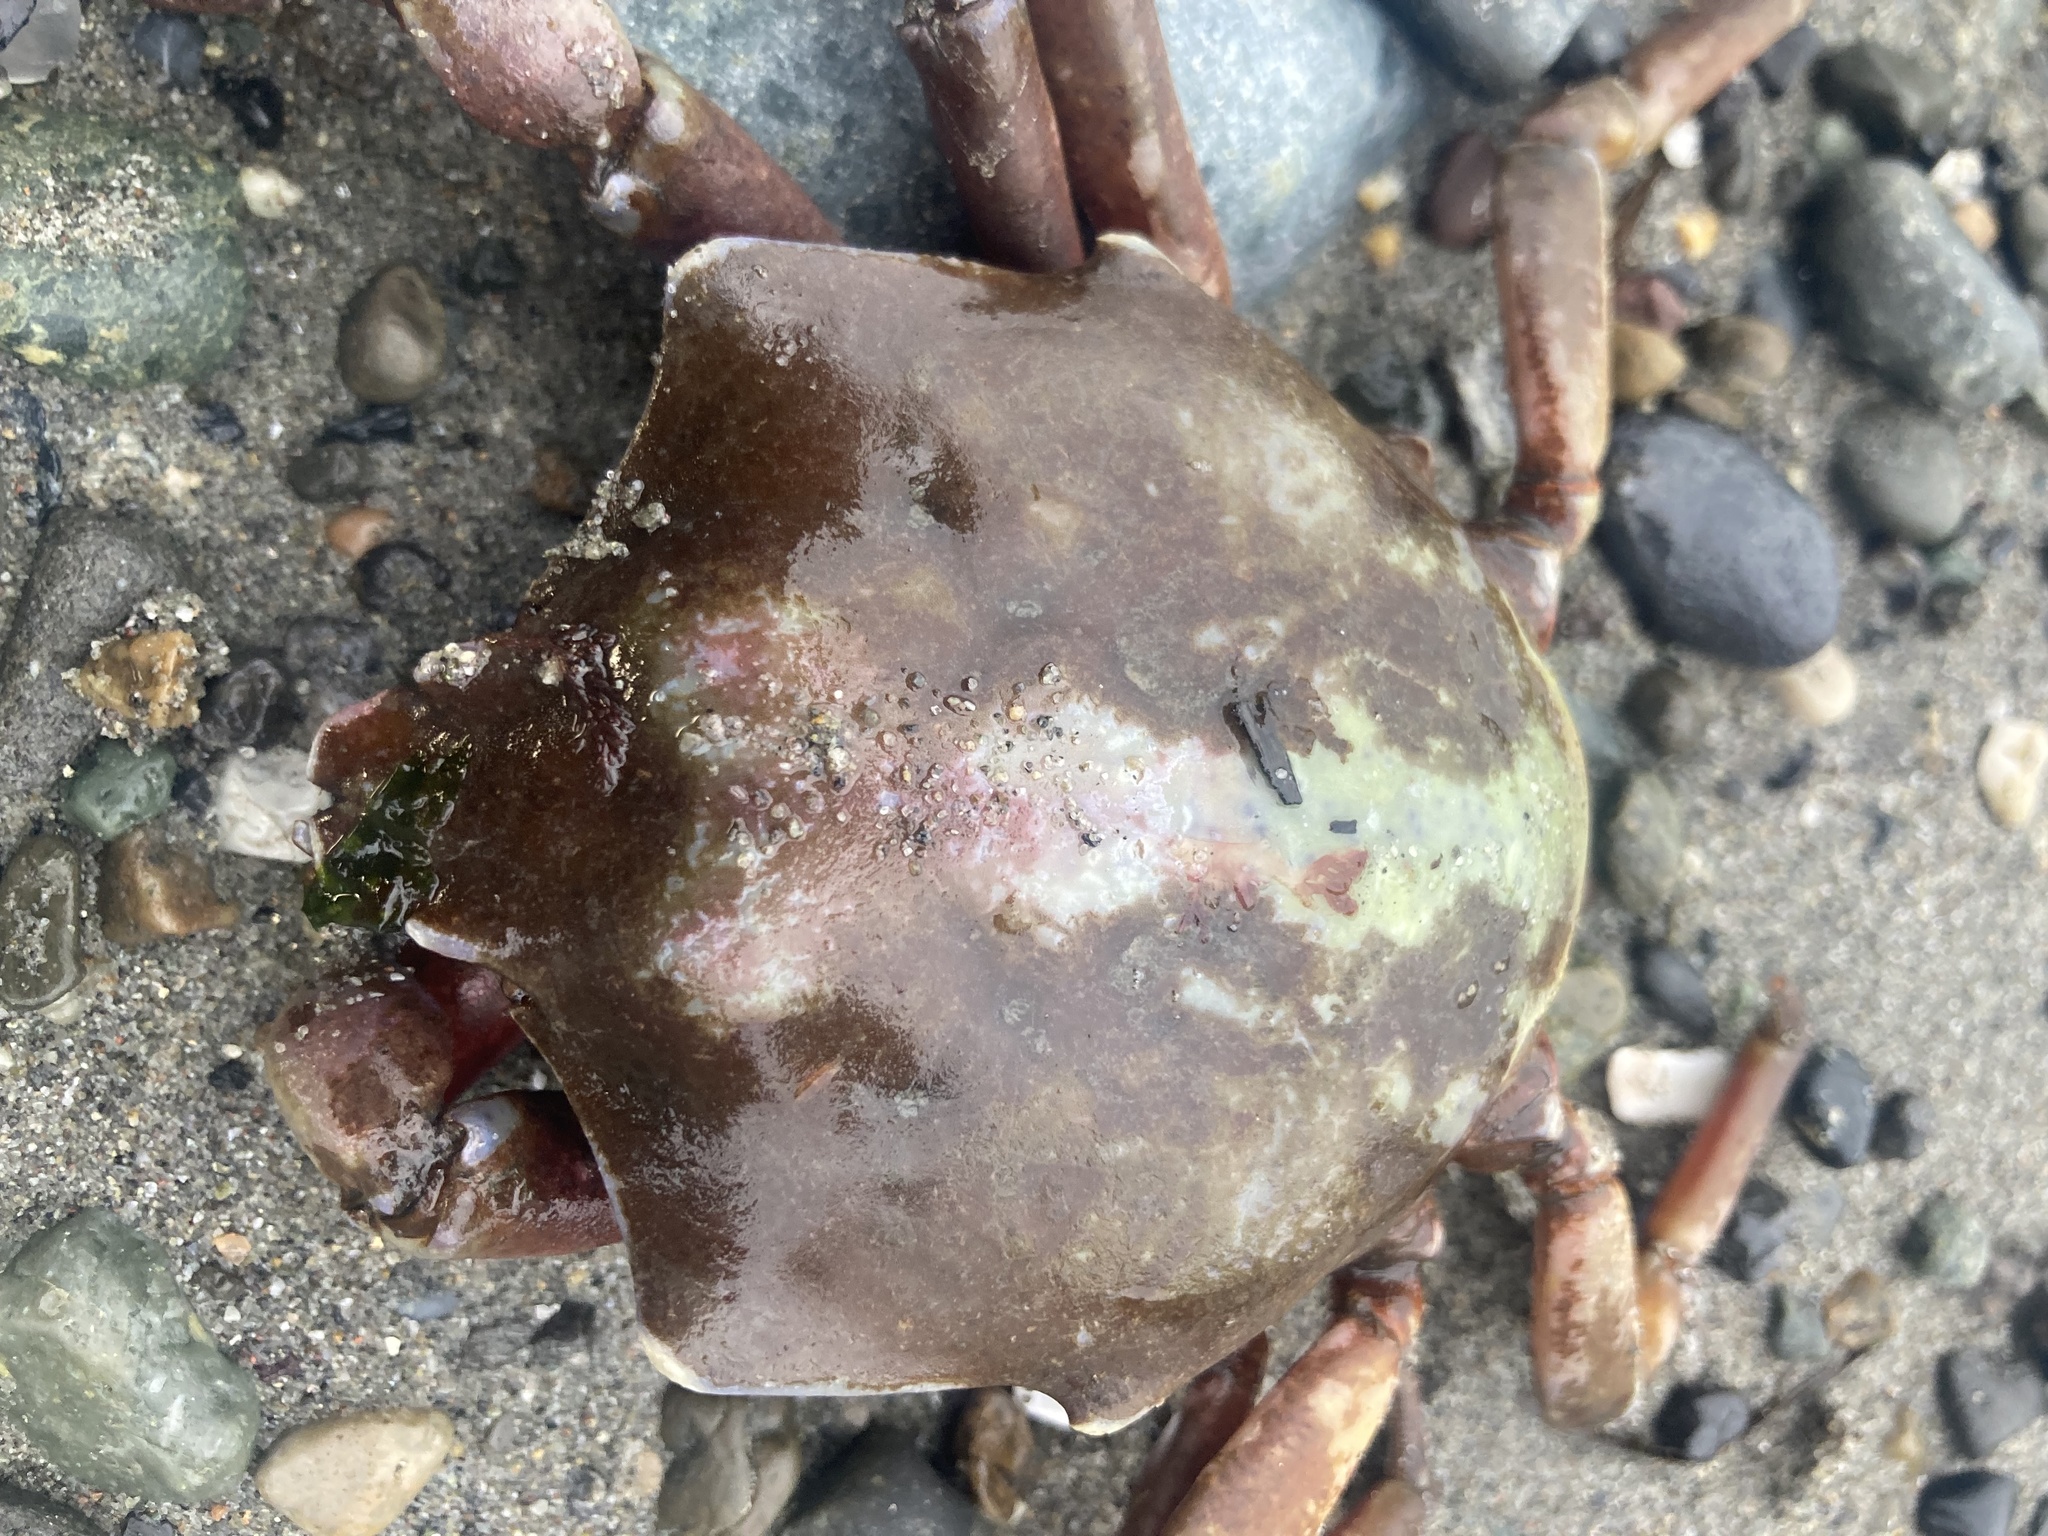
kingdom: Animalia
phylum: Arthropoda
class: Malacostraca
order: Decapoda
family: Epialtidae
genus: Pugettia
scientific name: Pugettia producta
